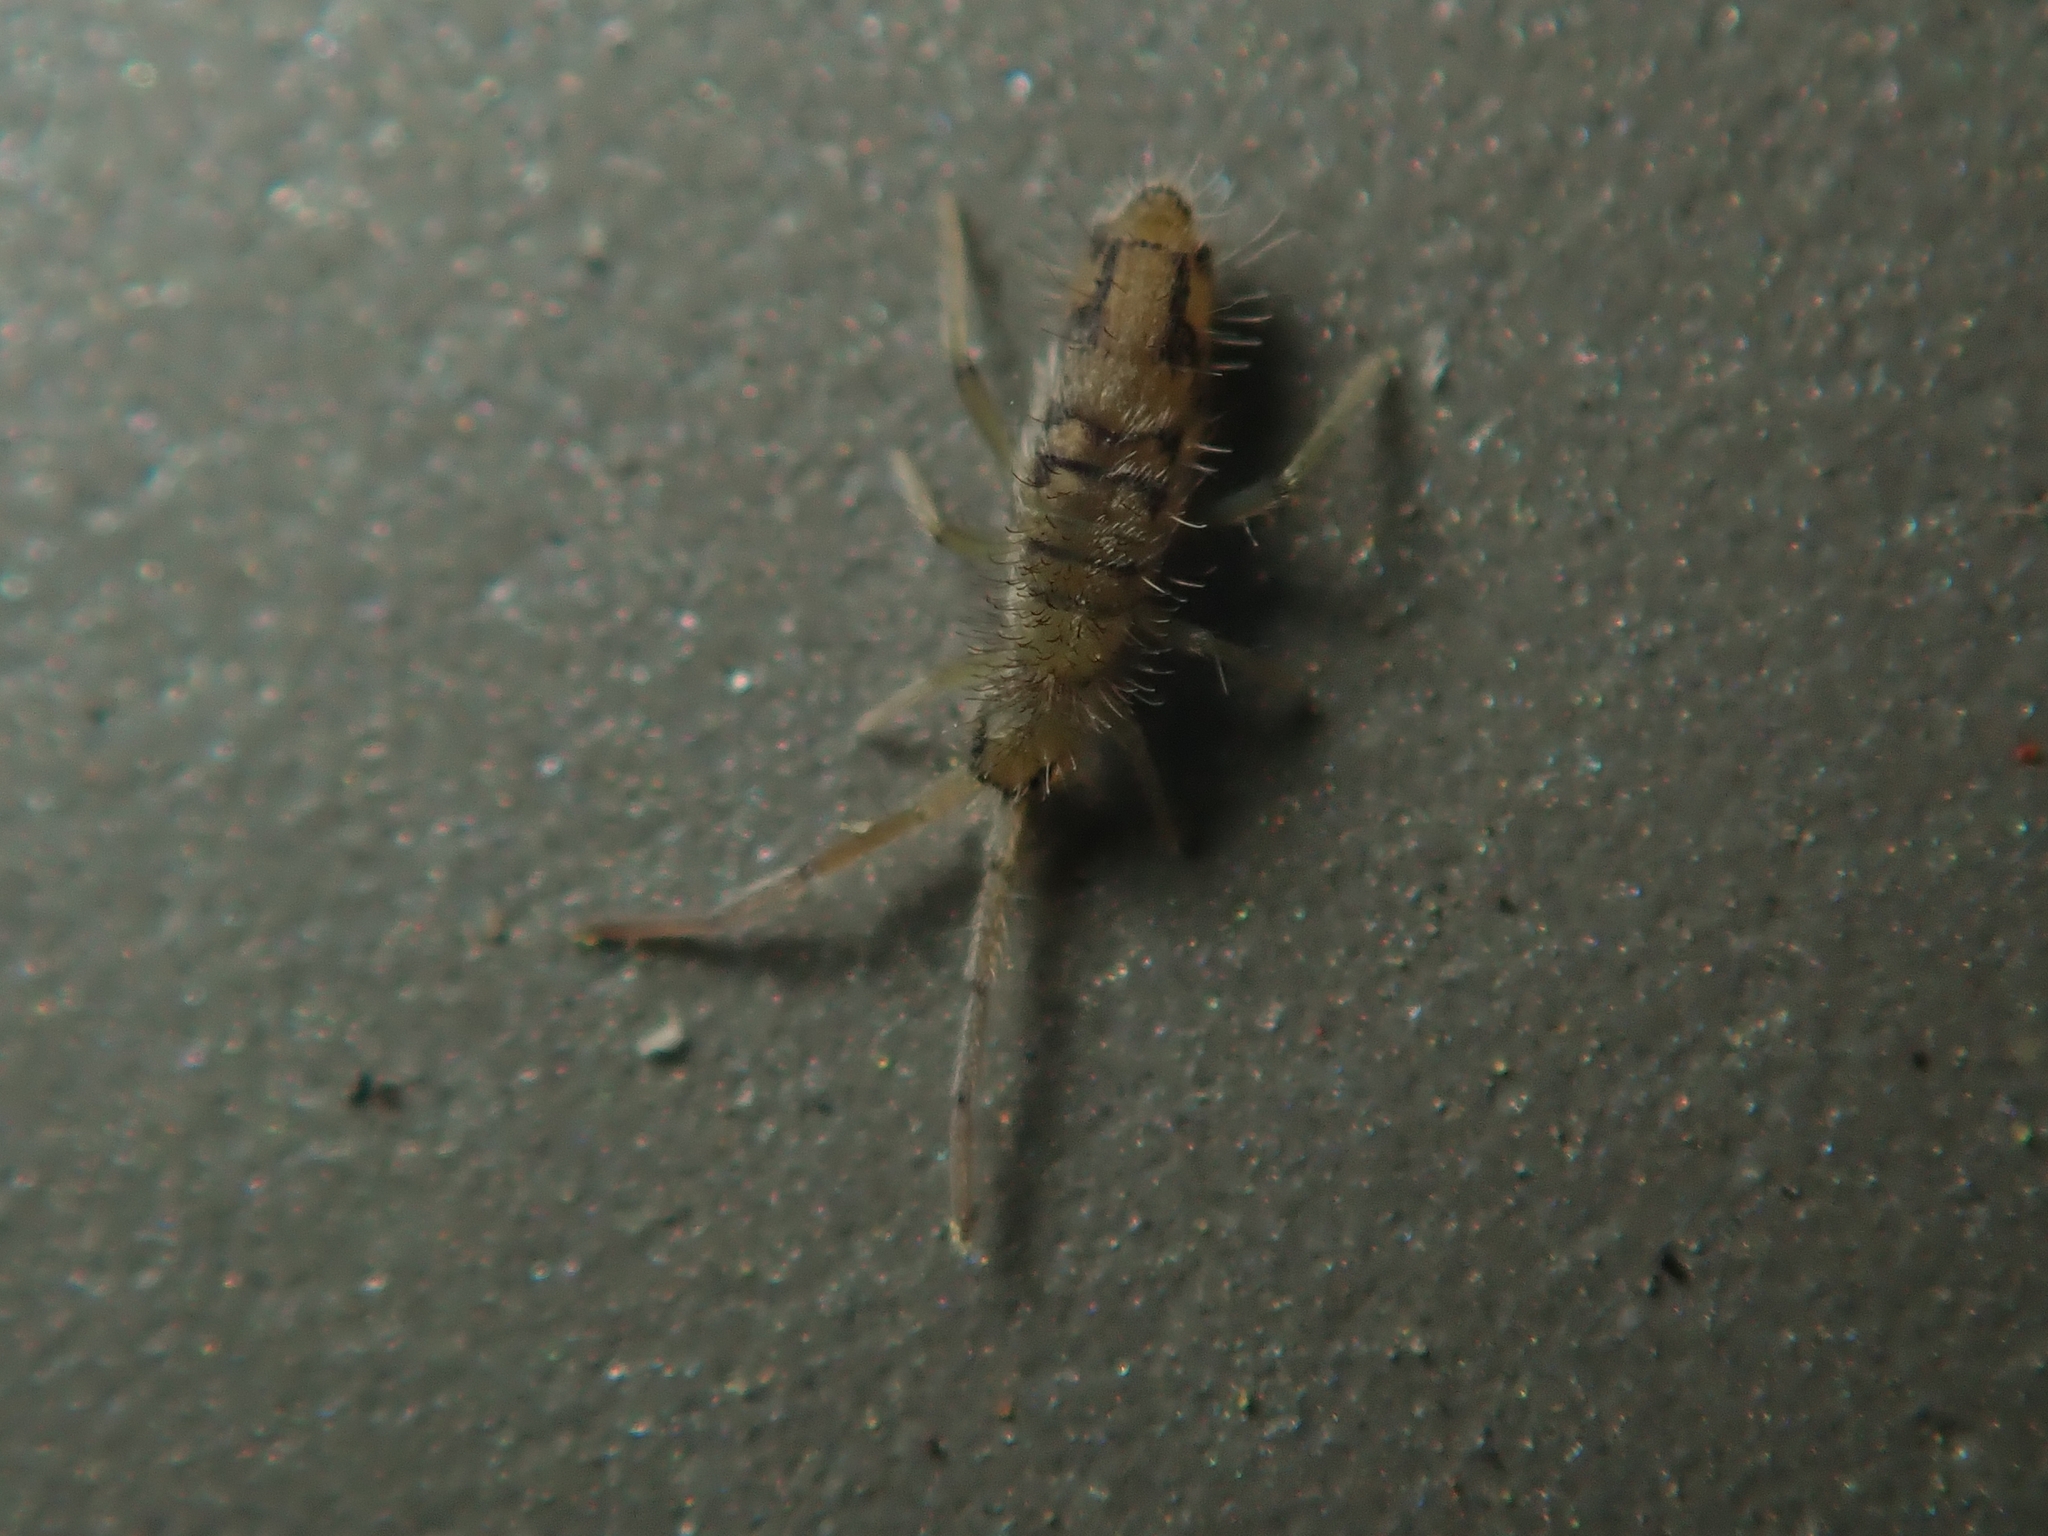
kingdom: Animalia
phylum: Arthropoda
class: Collembola
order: Entomobryomorpha
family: Entomobryidae
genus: Entomobrya
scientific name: Entomobrya nivalis
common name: Cosmopolitan springtail
